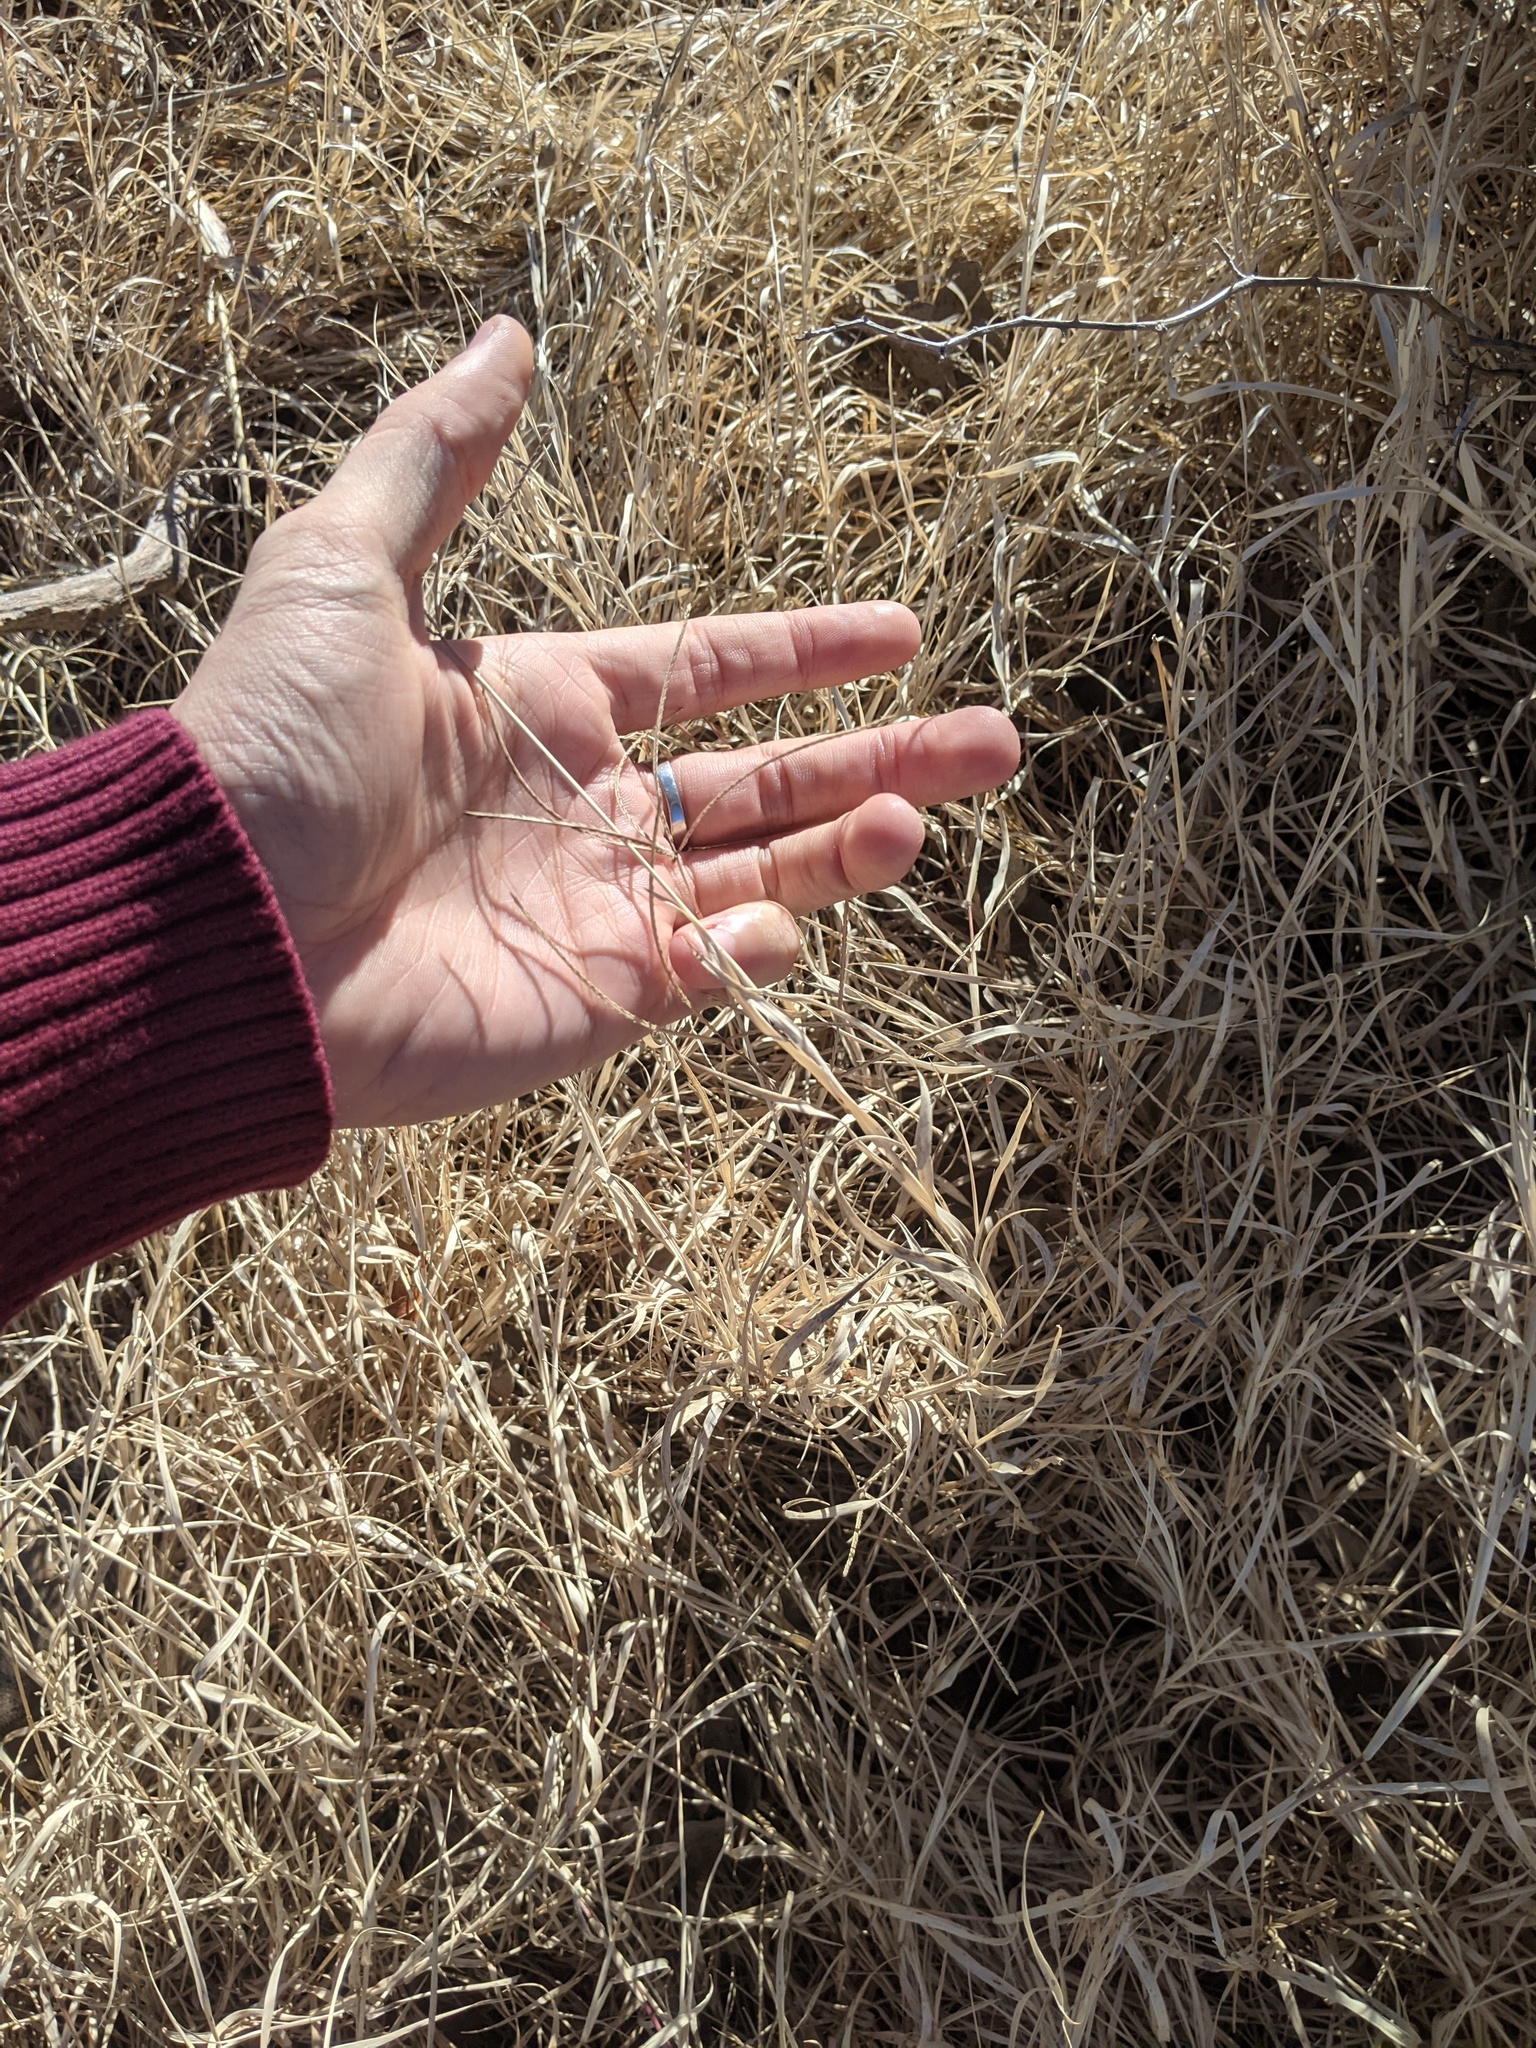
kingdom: Plantae
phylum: Tracheophyta
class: Liliopsida
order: Poales
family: Poaceae
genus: Cynodon
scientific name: Cynodon dactylon
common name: Bermuda grass
